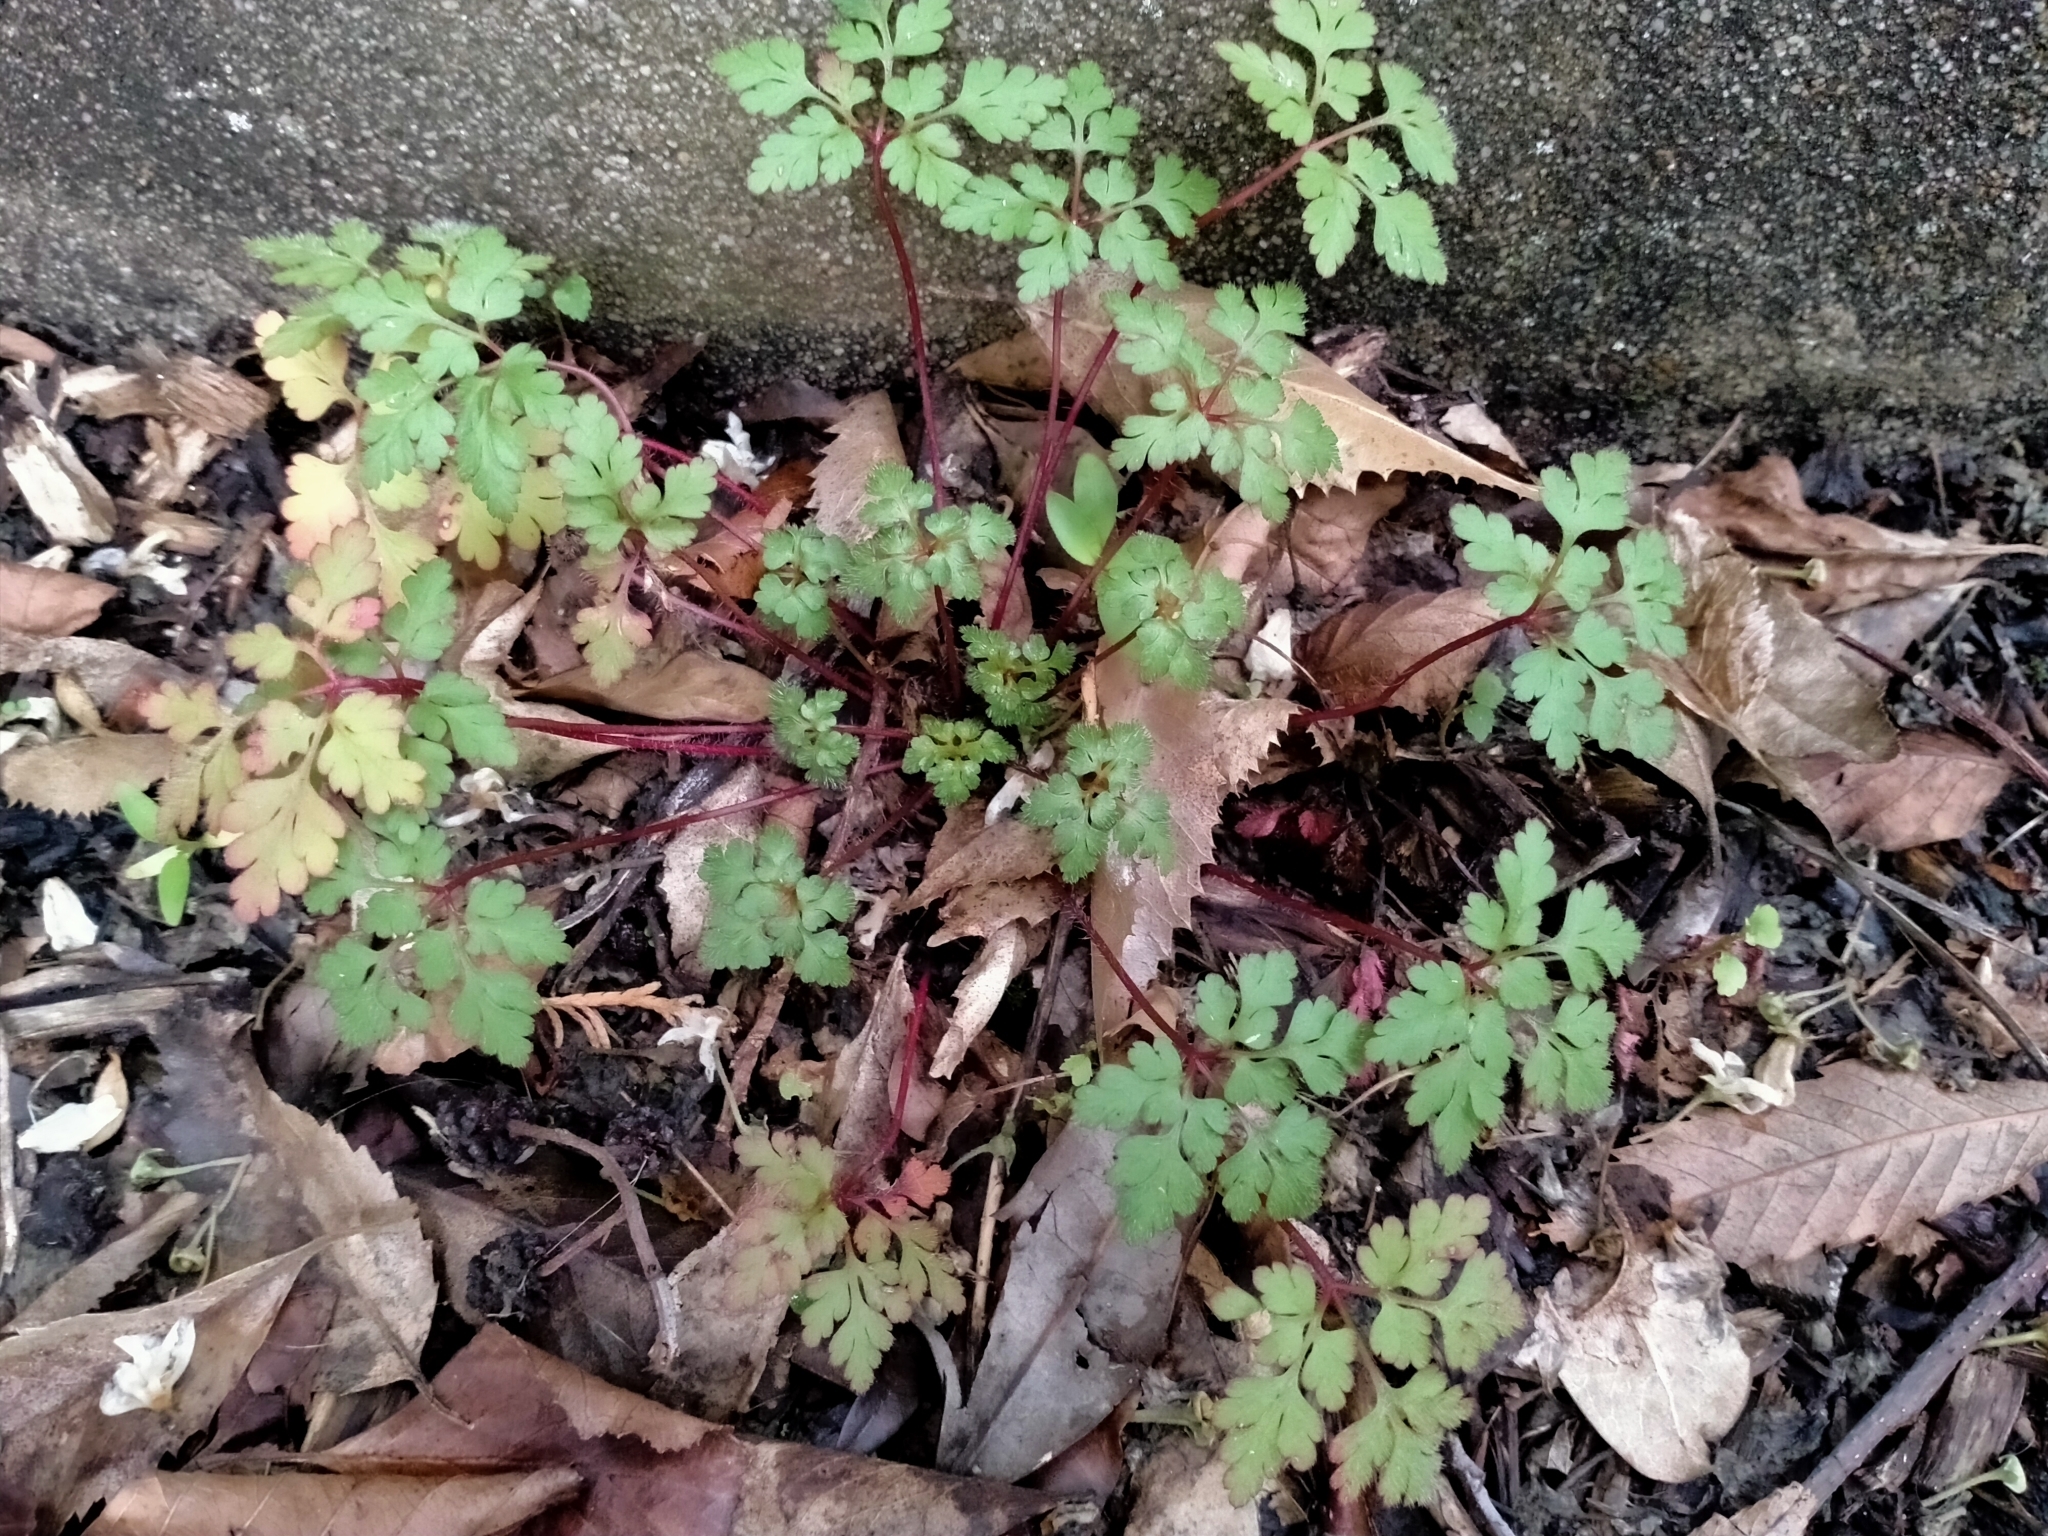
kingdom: Plantae
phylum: Tracheophyta
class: Magnoliopsida
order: Geraniales
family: Geraniaceae
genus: Geranium
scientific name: Geranium robertianum
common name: Herb-robert
